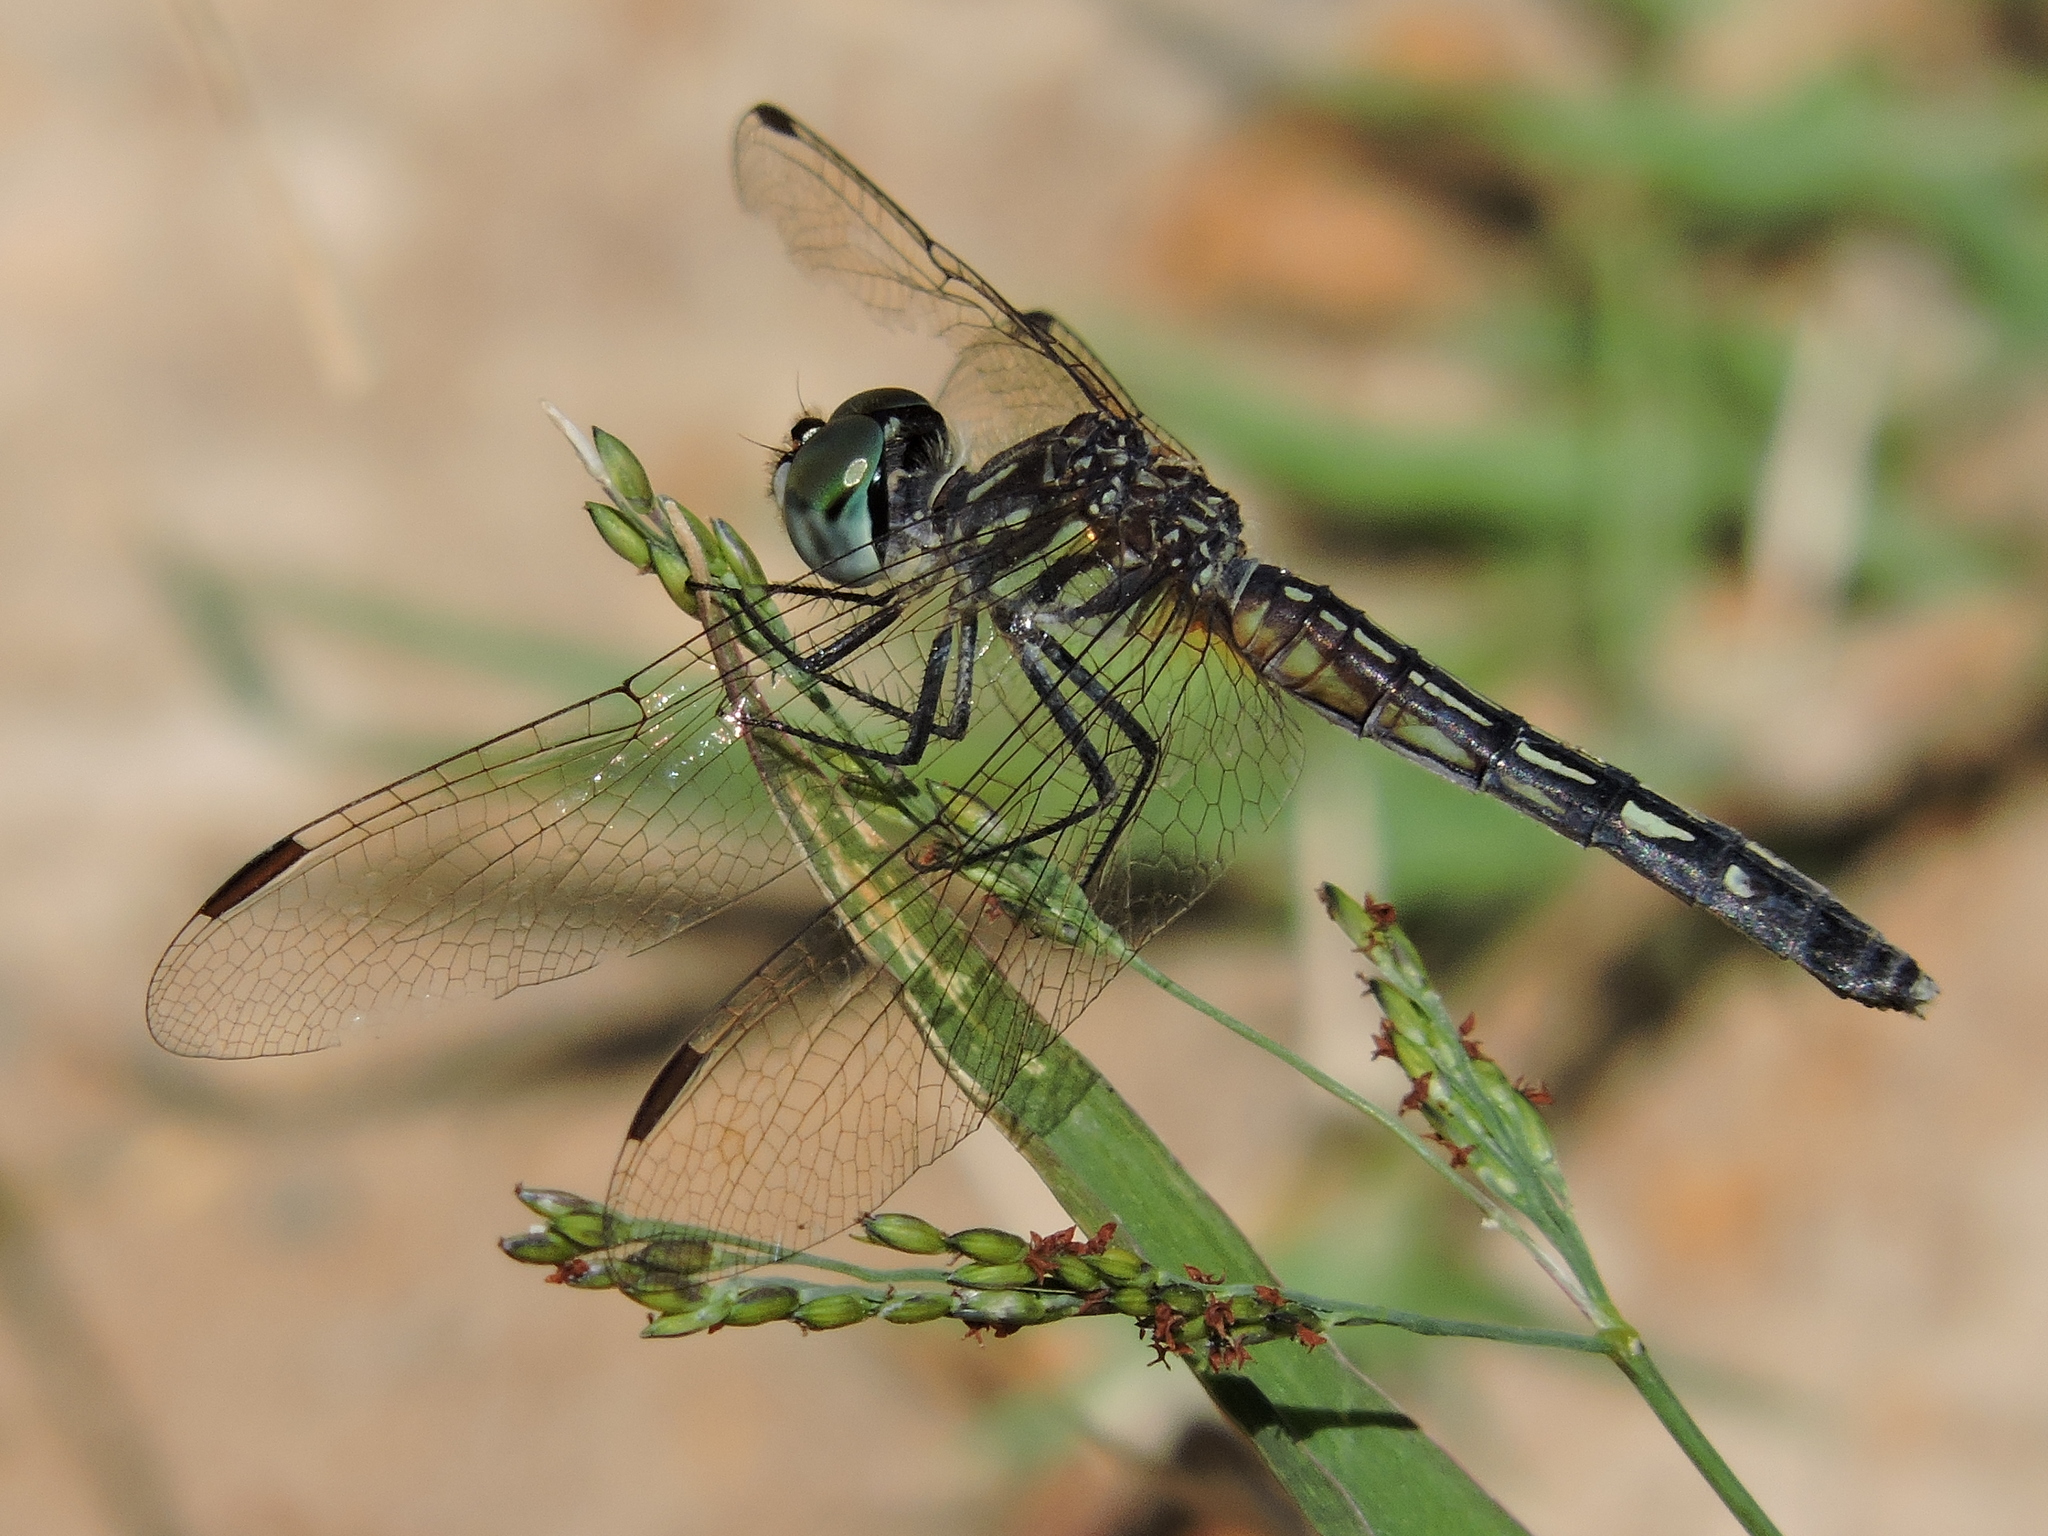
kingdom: Animalia
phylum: Arthropoda
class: Insecta
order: Odonata
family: Libellulidae
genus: Pachydiplax
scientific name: Pachydiplax longipennis
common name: Blue dasher
